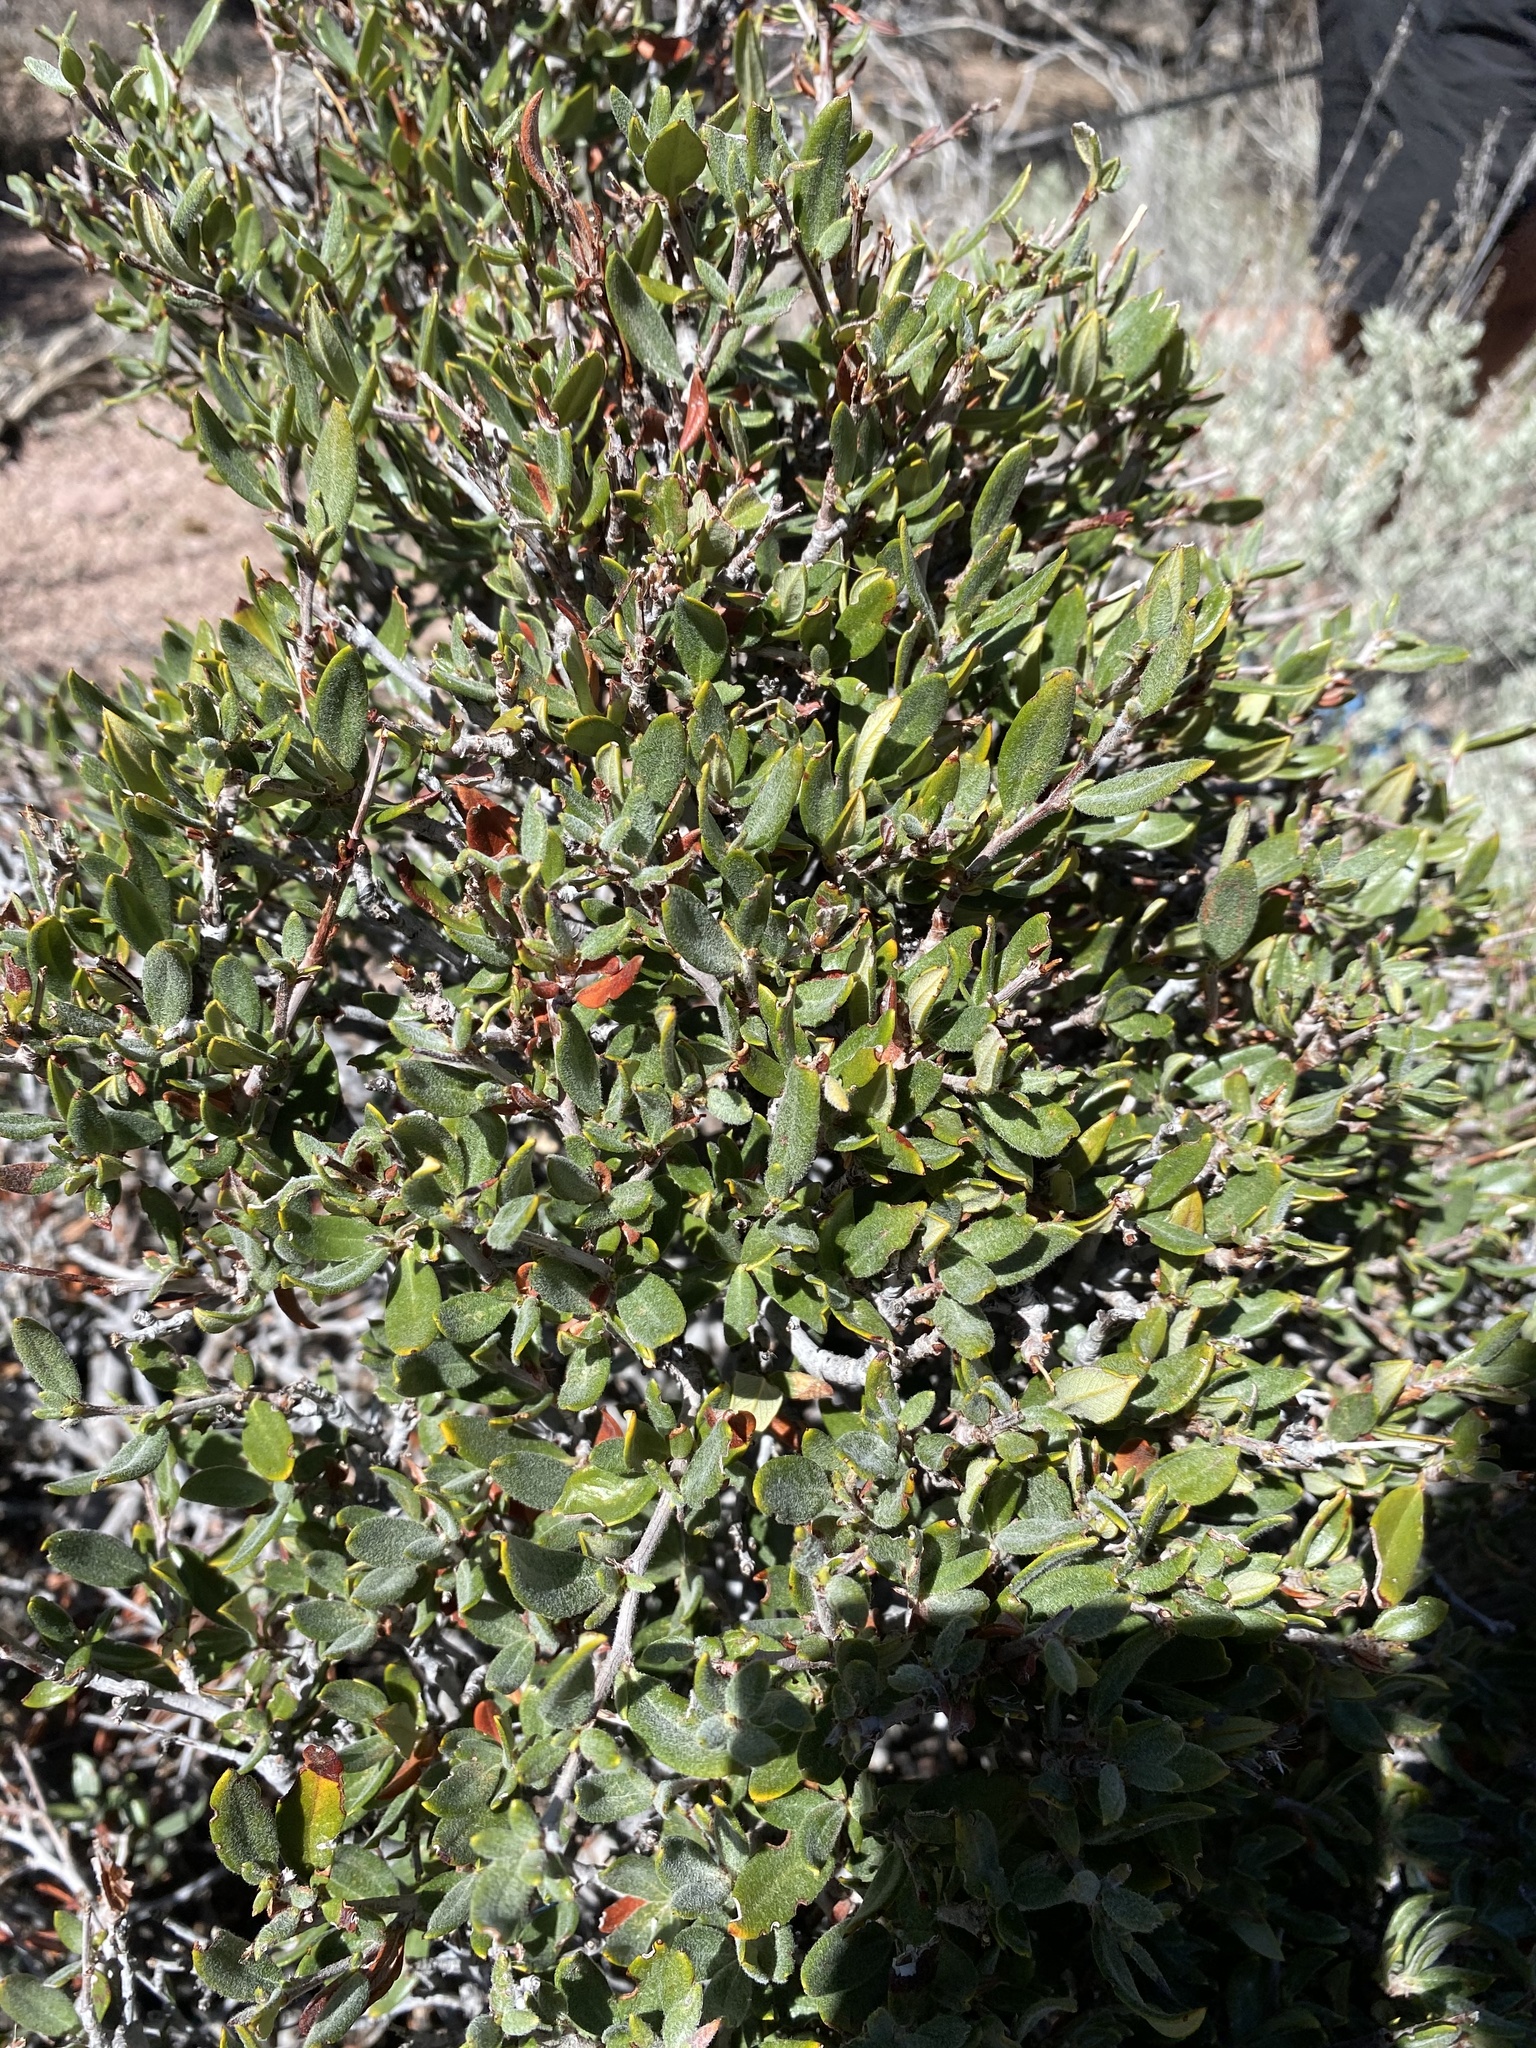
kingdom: Plantae
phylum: Tracheophyta
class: Magnoliopsida
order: Rosales
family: Rosaceae
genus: Cercocarpus
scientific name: Cercocarpus ledifolius
